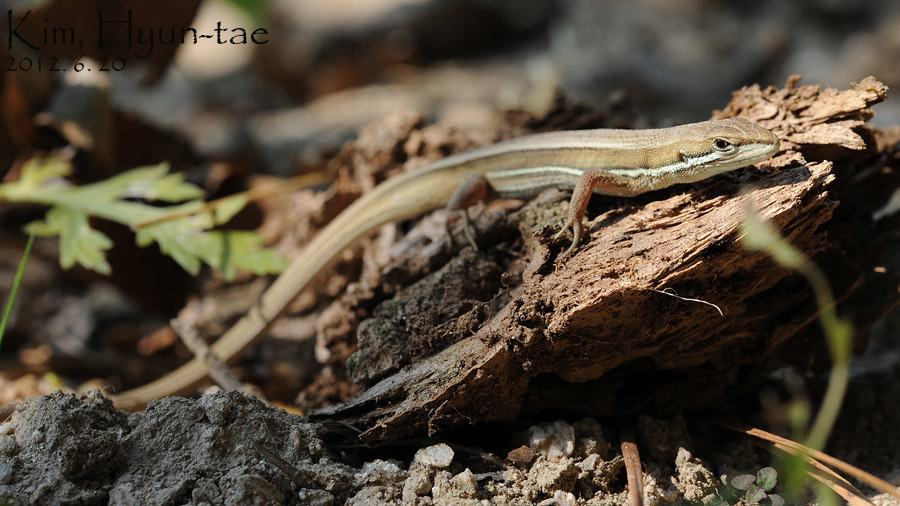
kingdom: Animalia
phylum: Chordata
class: Squamata
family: Lacertidae
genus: Takydromus
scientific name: Takydromus wolteri
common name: Mountain grass lizard
